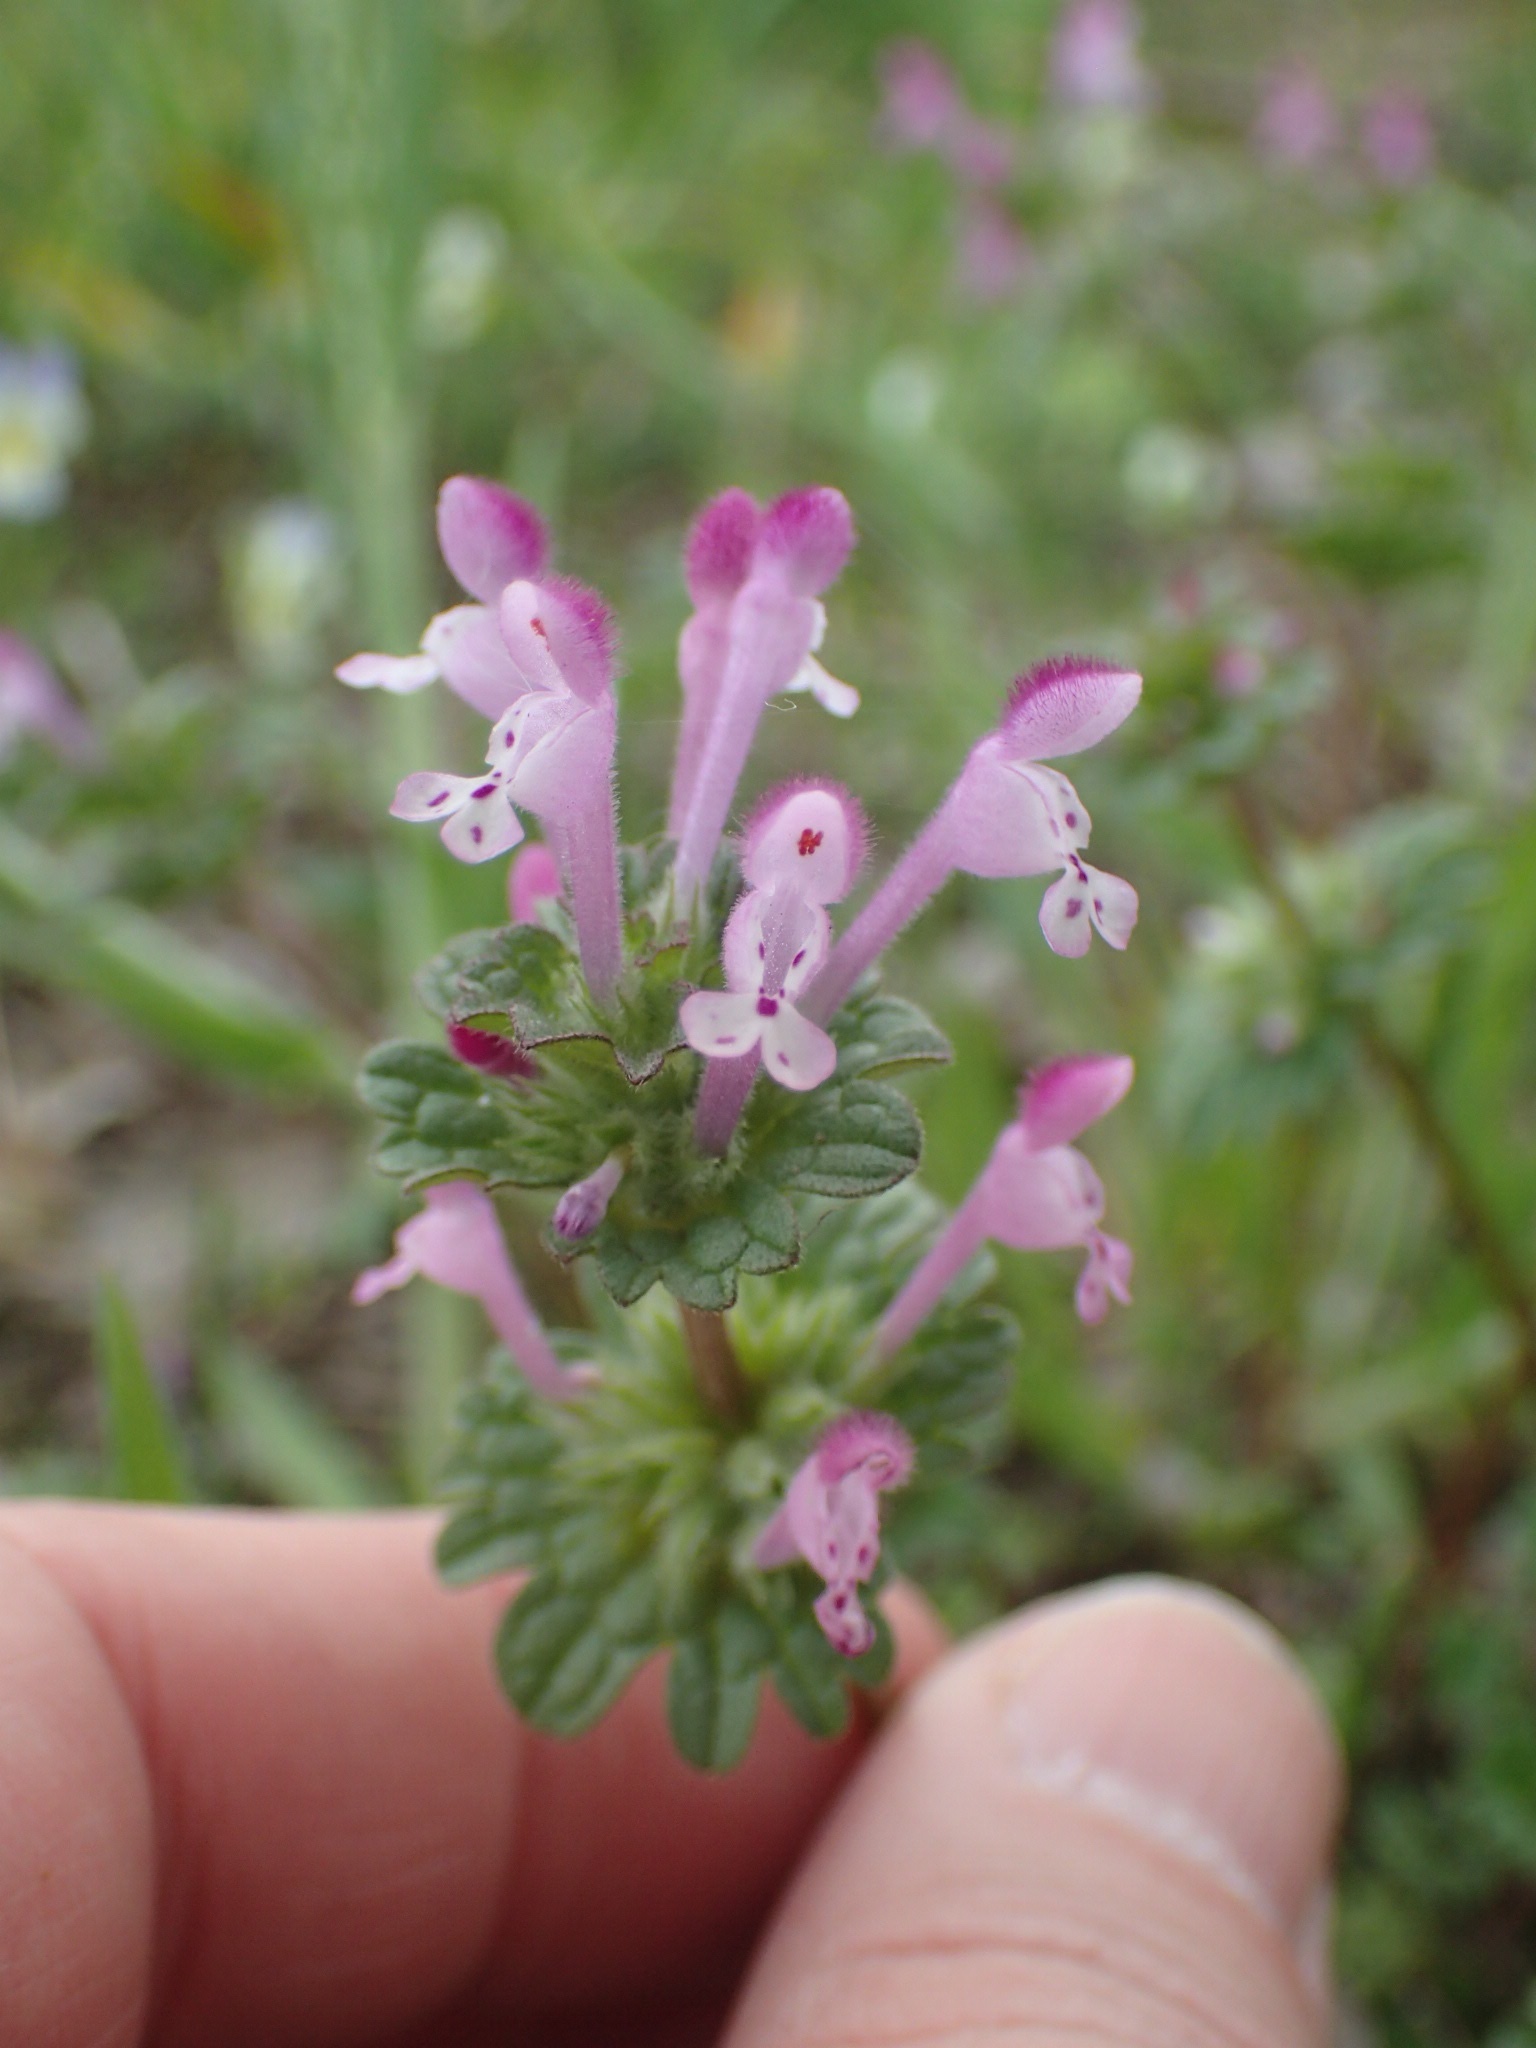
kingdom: Plantae
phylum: Tracheophyta
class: Magnoliopsida
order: Lamiales
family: Lamiaceae
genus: Lamium
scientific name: Lamium amplexicaule
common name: Henbit dead-nettle
